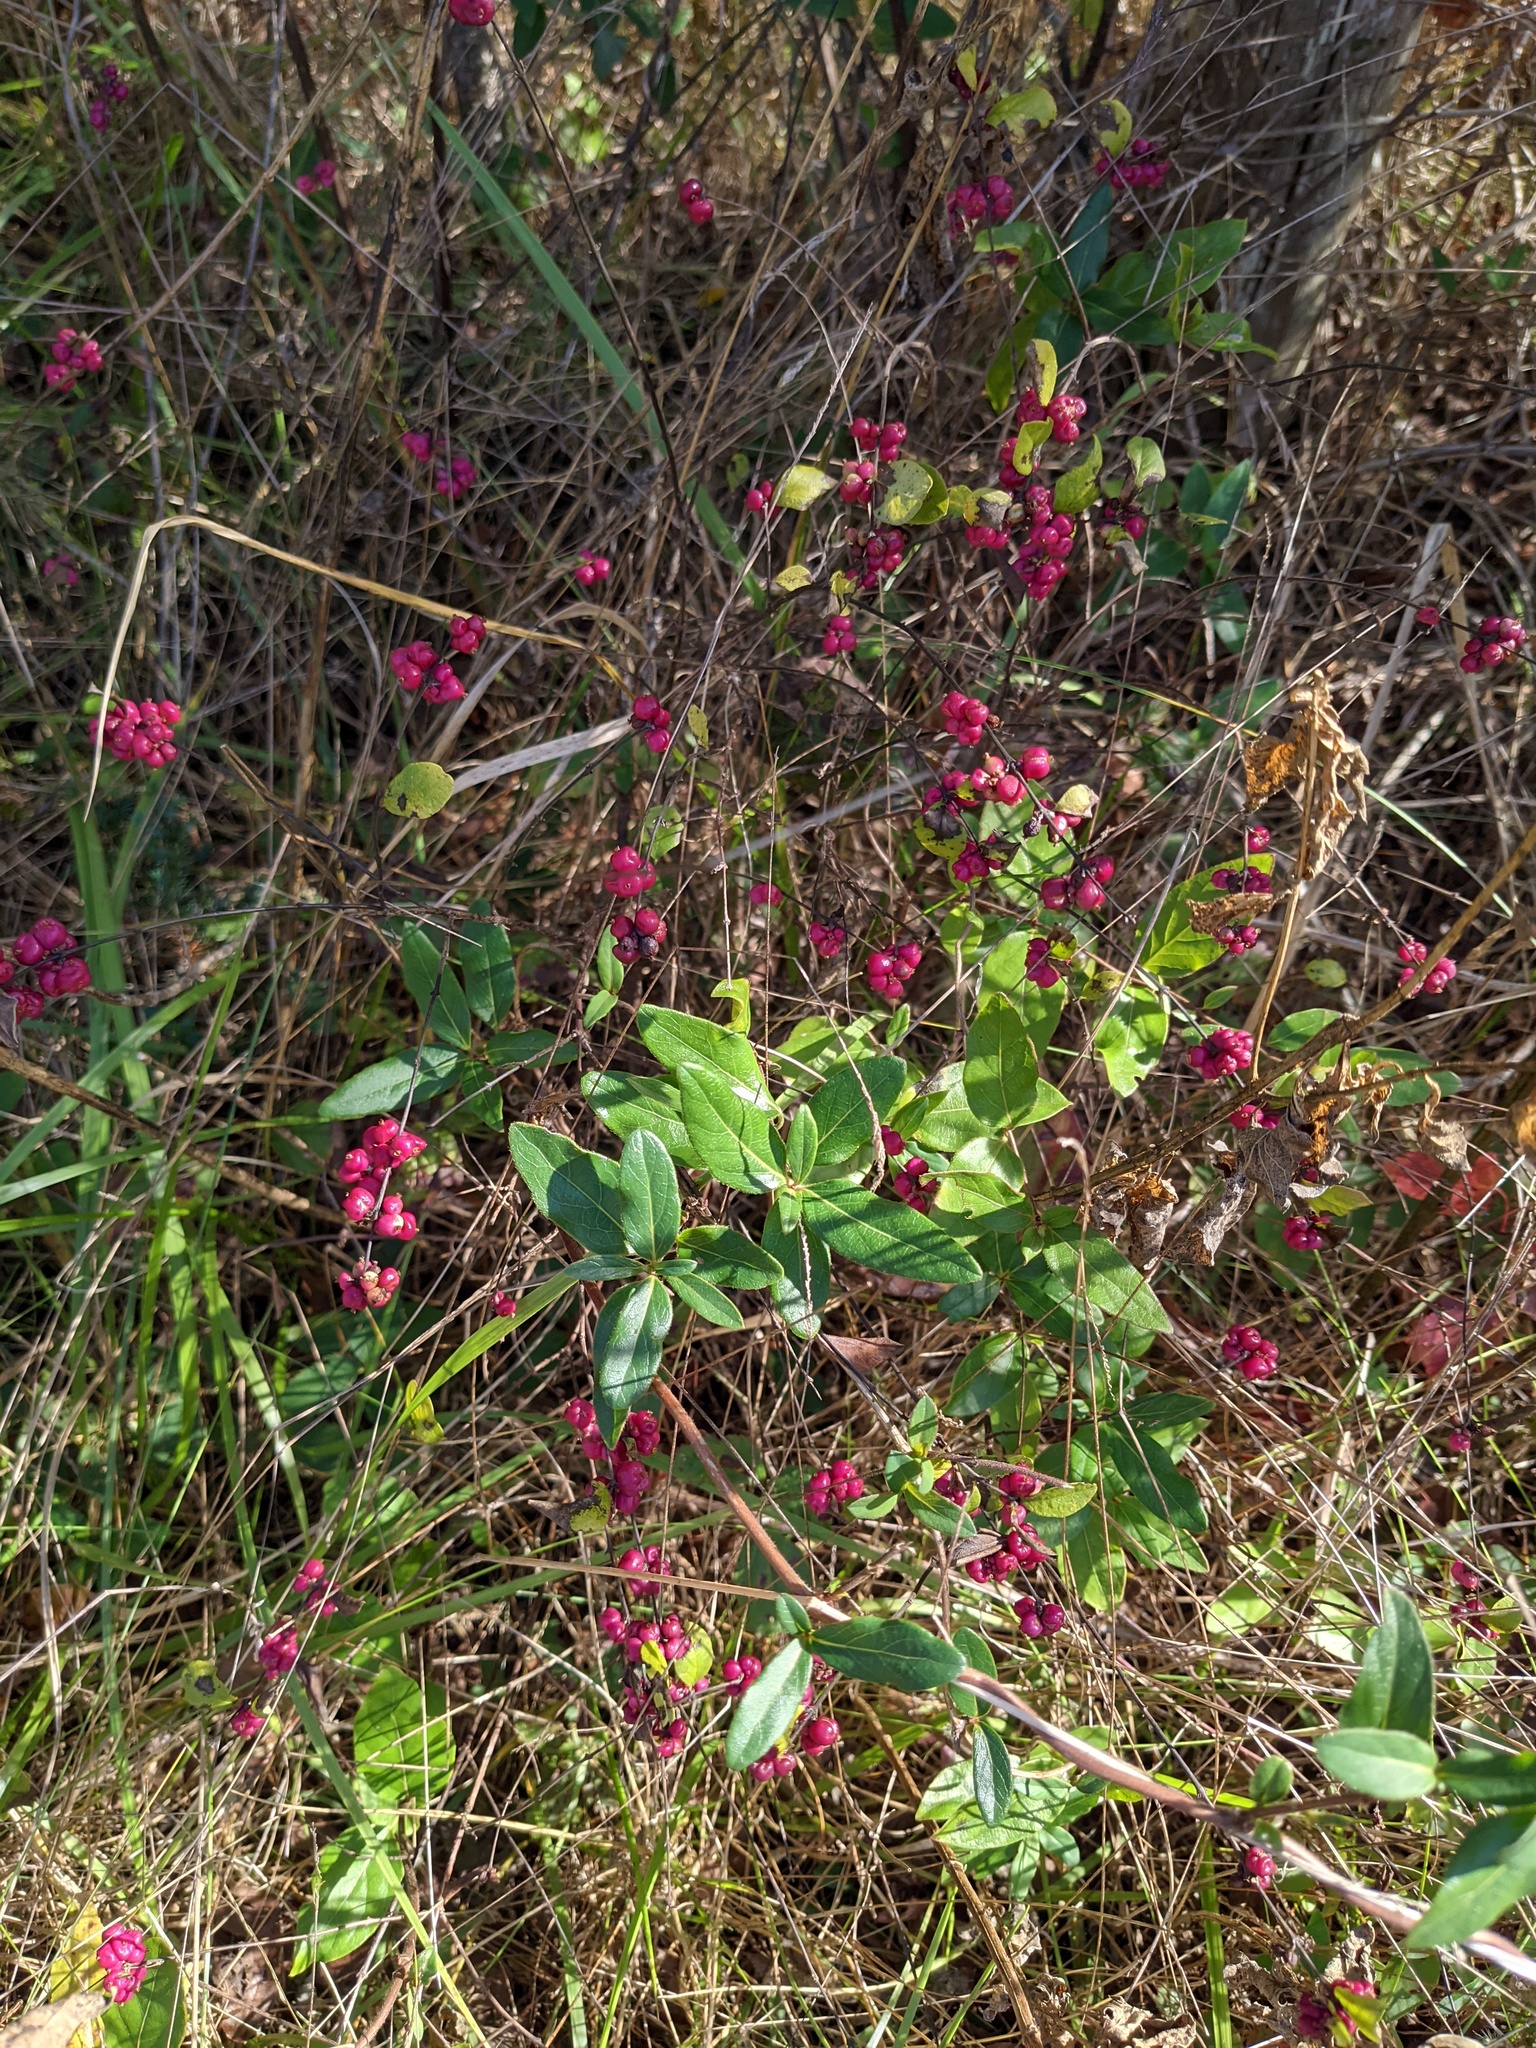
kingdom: Plantae
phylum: Tracheophyta
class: Magnoliopsida
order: Dipsacales
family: Caprifoliaceae
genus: Symphoricarpos
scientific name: Symphoricarpos orbiculatus
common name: Coralberry
